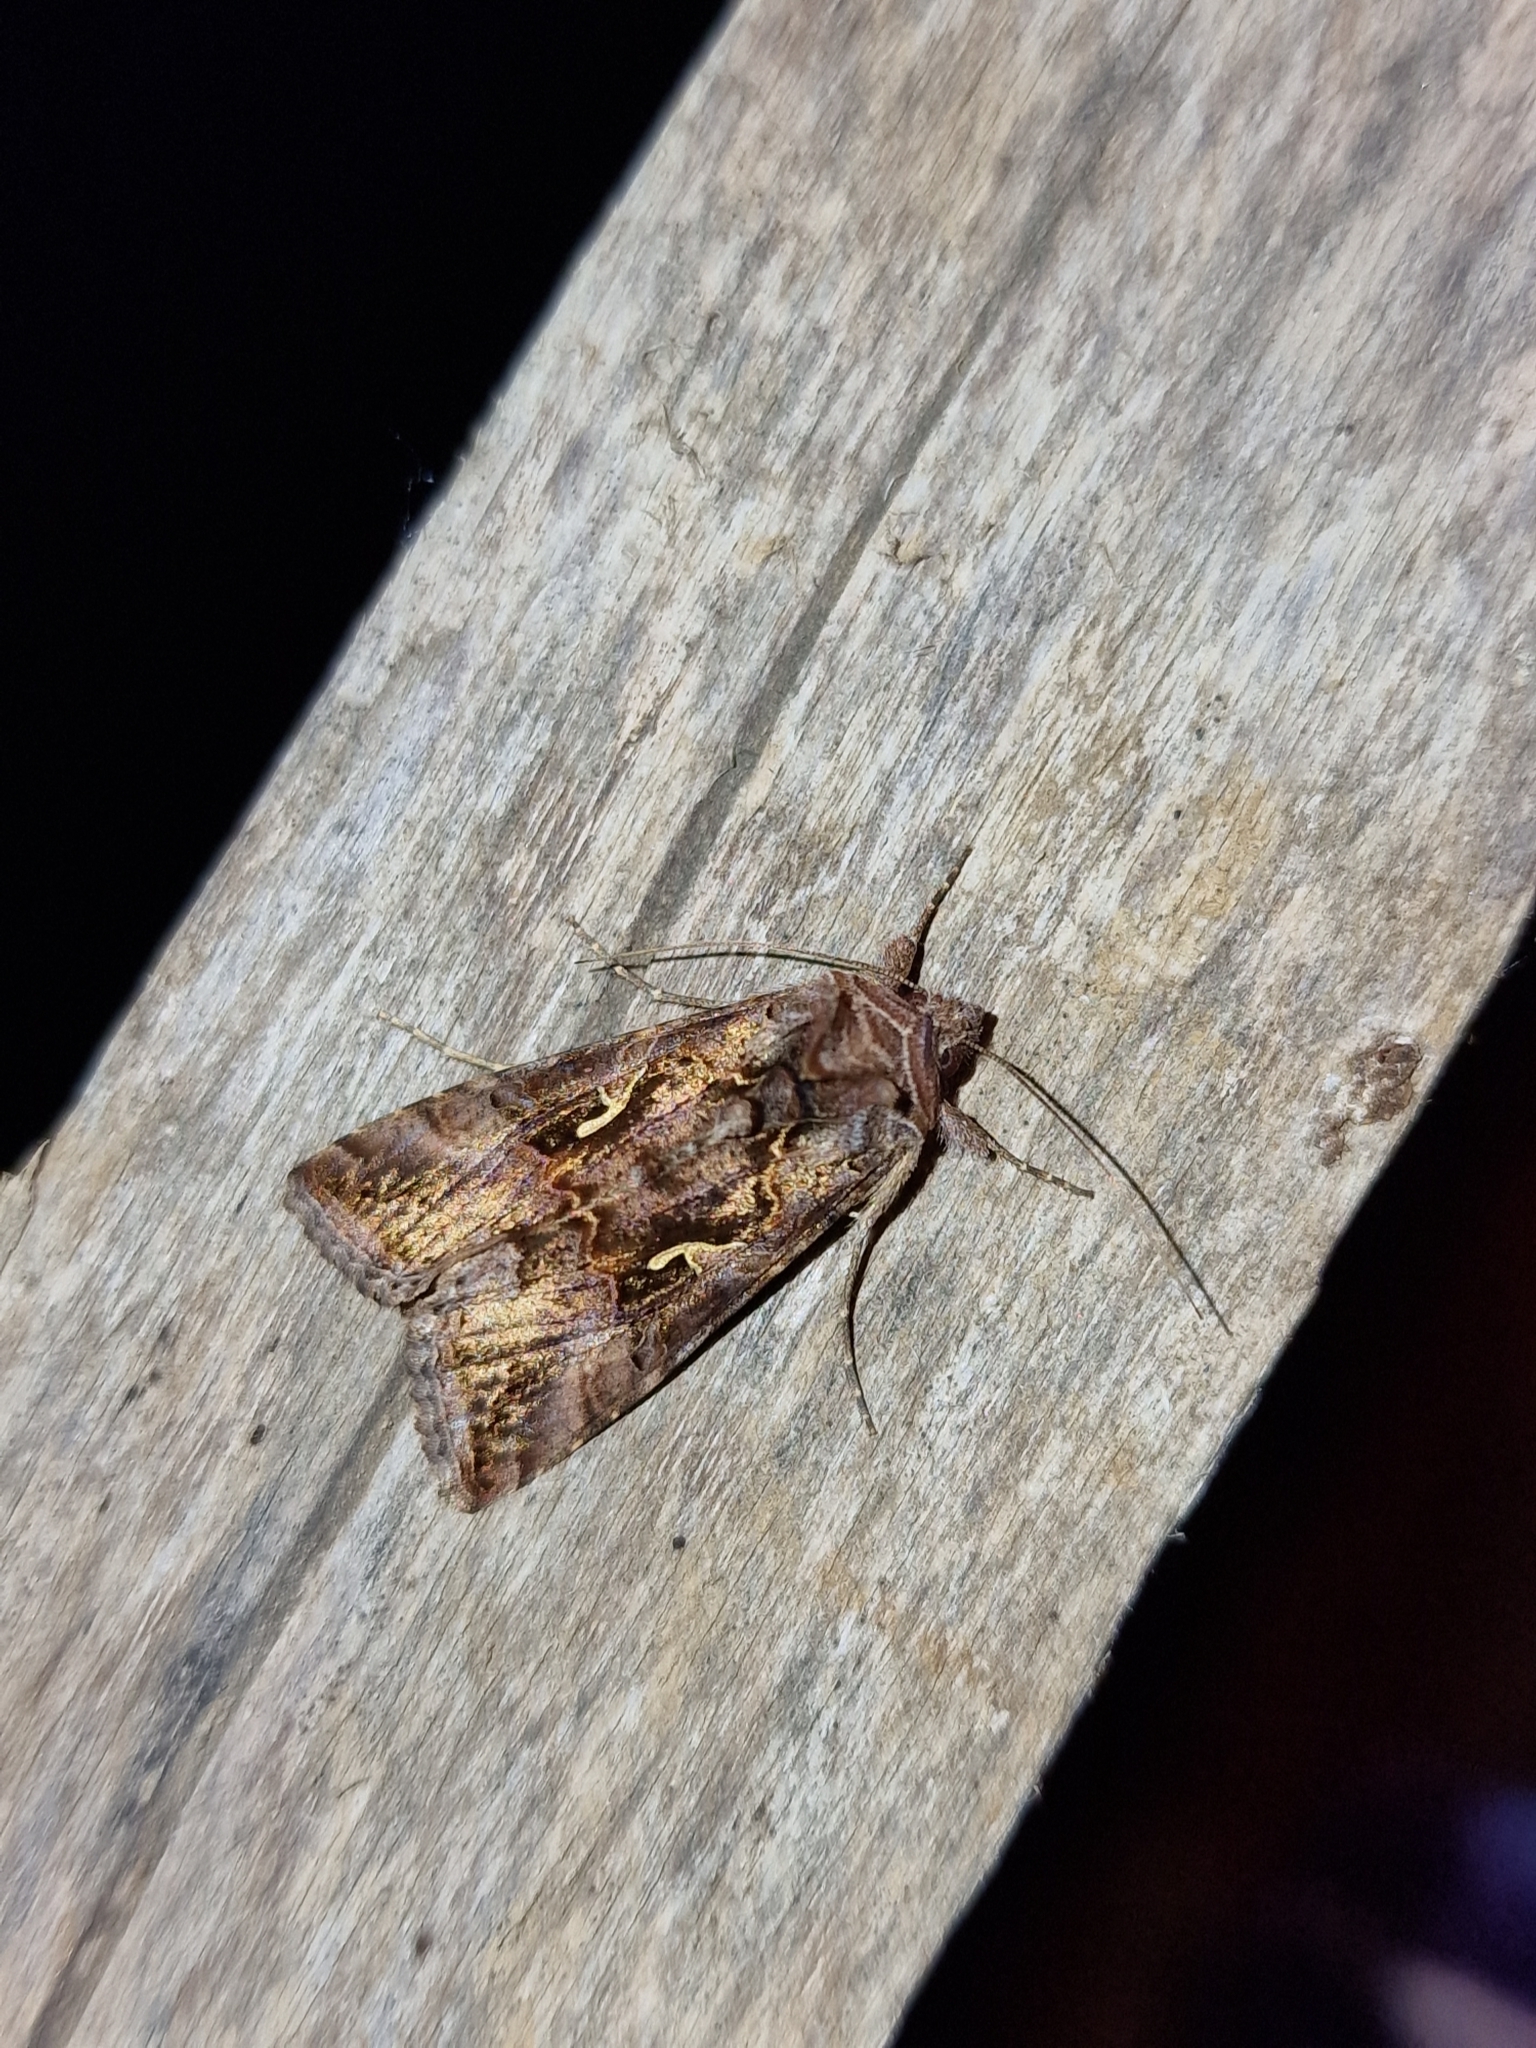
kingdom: Animalia
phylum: Arthropoda
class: Insecta
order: Lepidoptera
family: Noctuidae
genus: Autographa
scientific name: Autographa gamma
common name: Silver y
